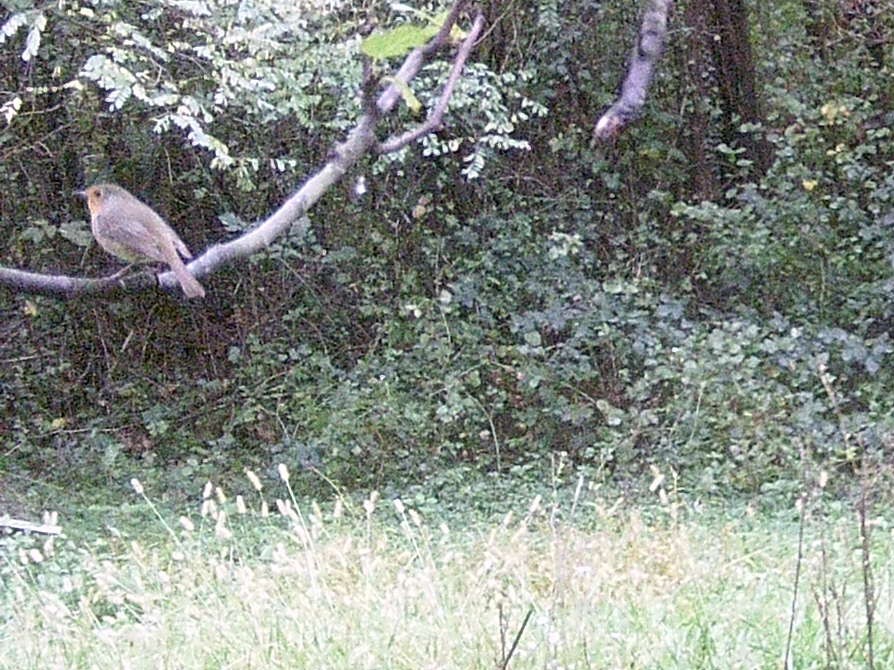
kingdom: Animalia
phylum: Chordata
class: Aves
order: Passeriformes
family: Muscicapidae
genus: Erithacus
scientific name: Erithacus rubecula
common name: European robin
